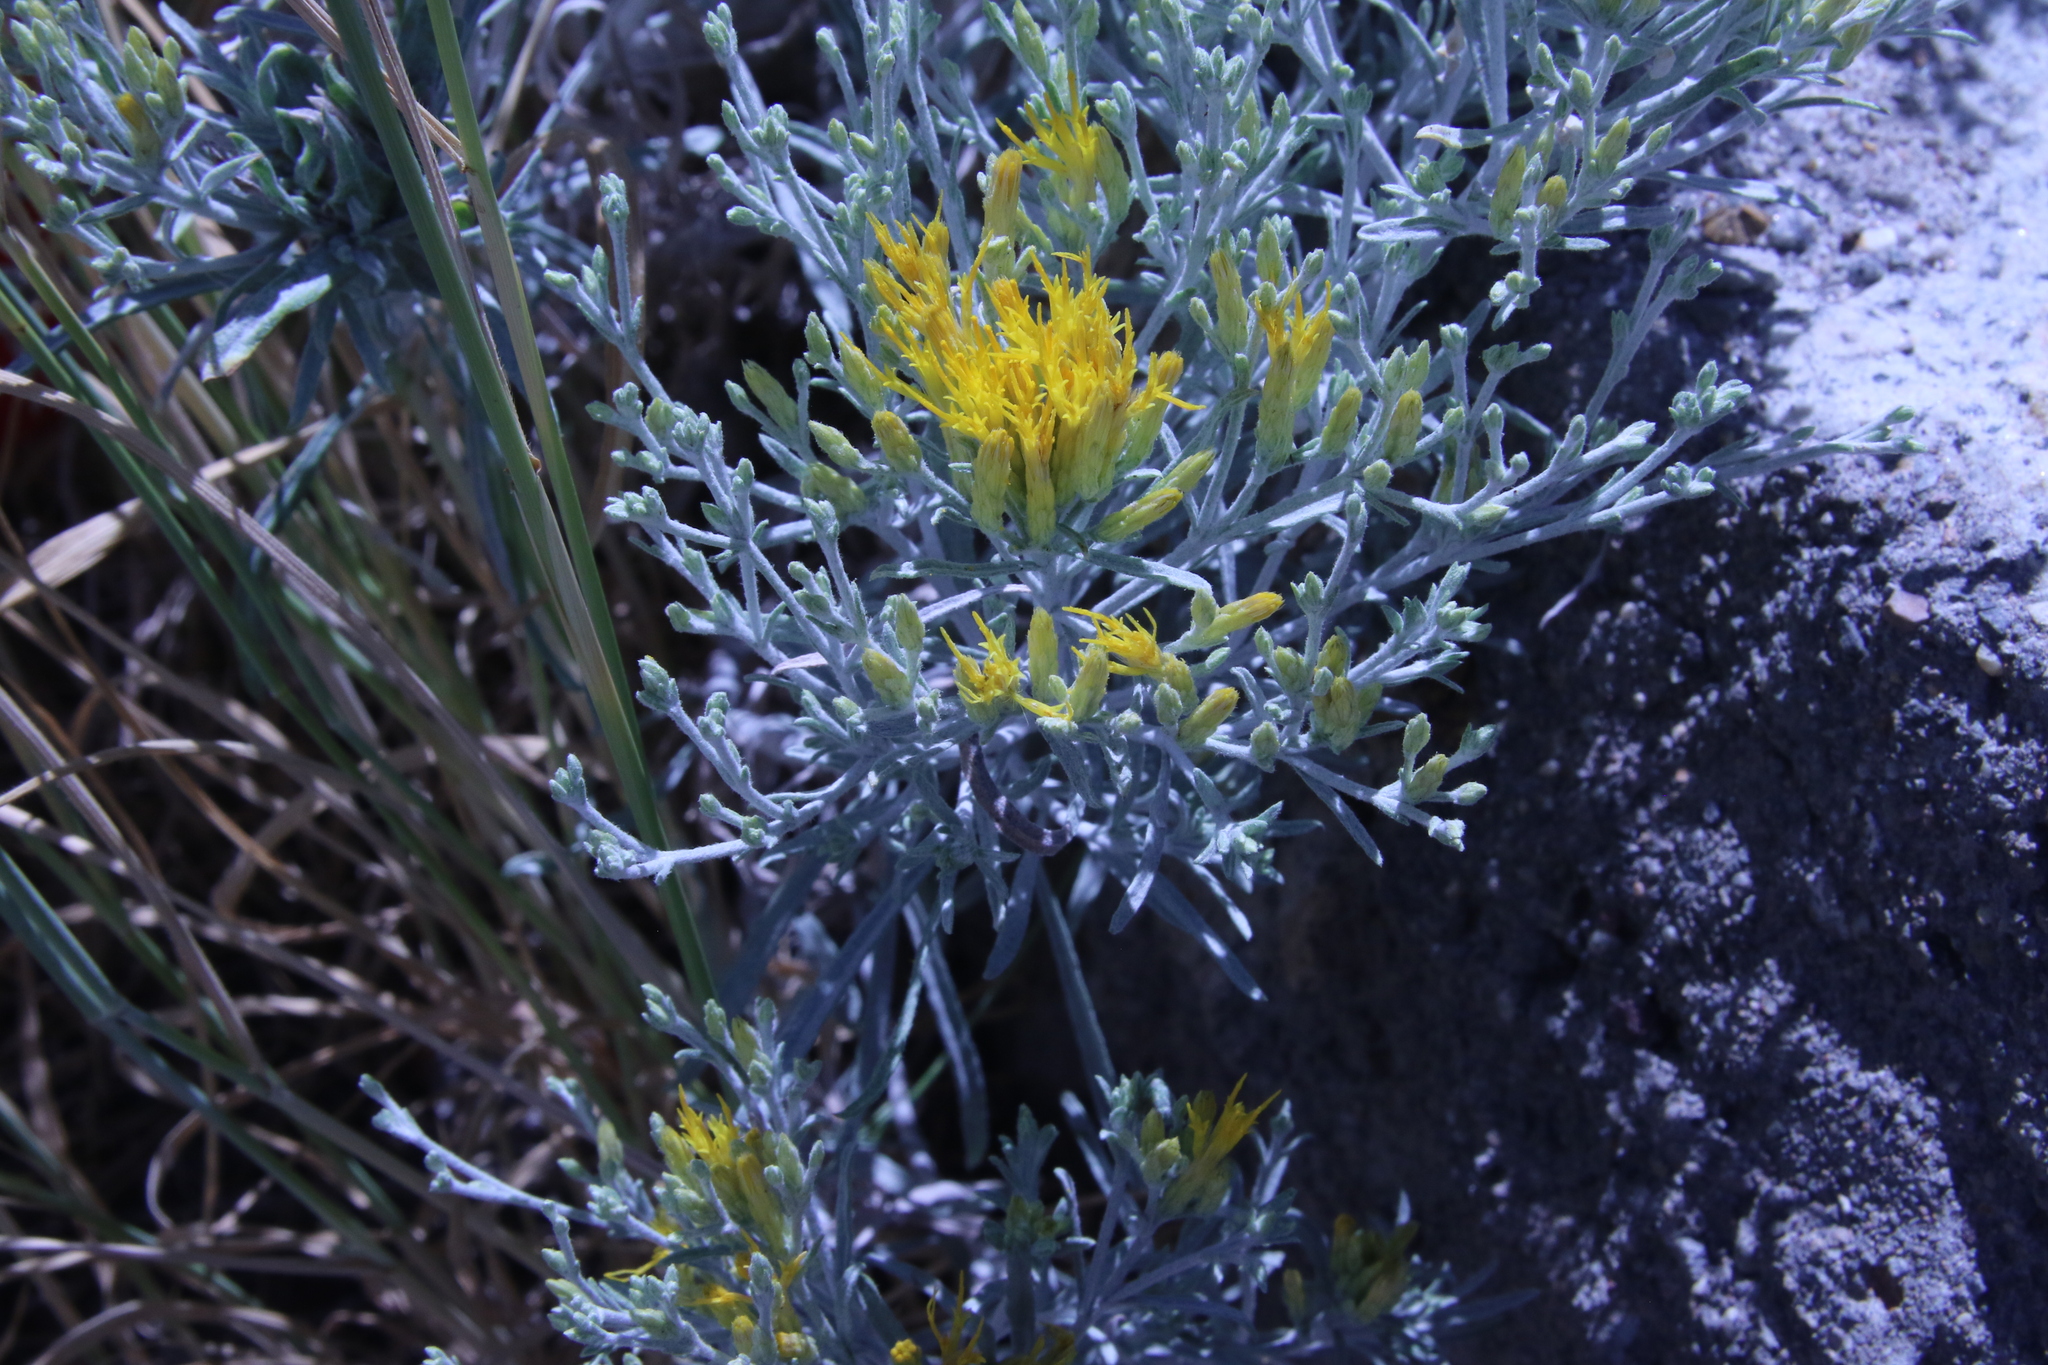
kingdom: Plantae
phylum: Tracheophyta
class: Magnoliopsida
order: Asterales
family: Asteraceae
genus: Ericameria
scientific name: Ericameria nauseosa
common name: Rubber rabbitbrush
